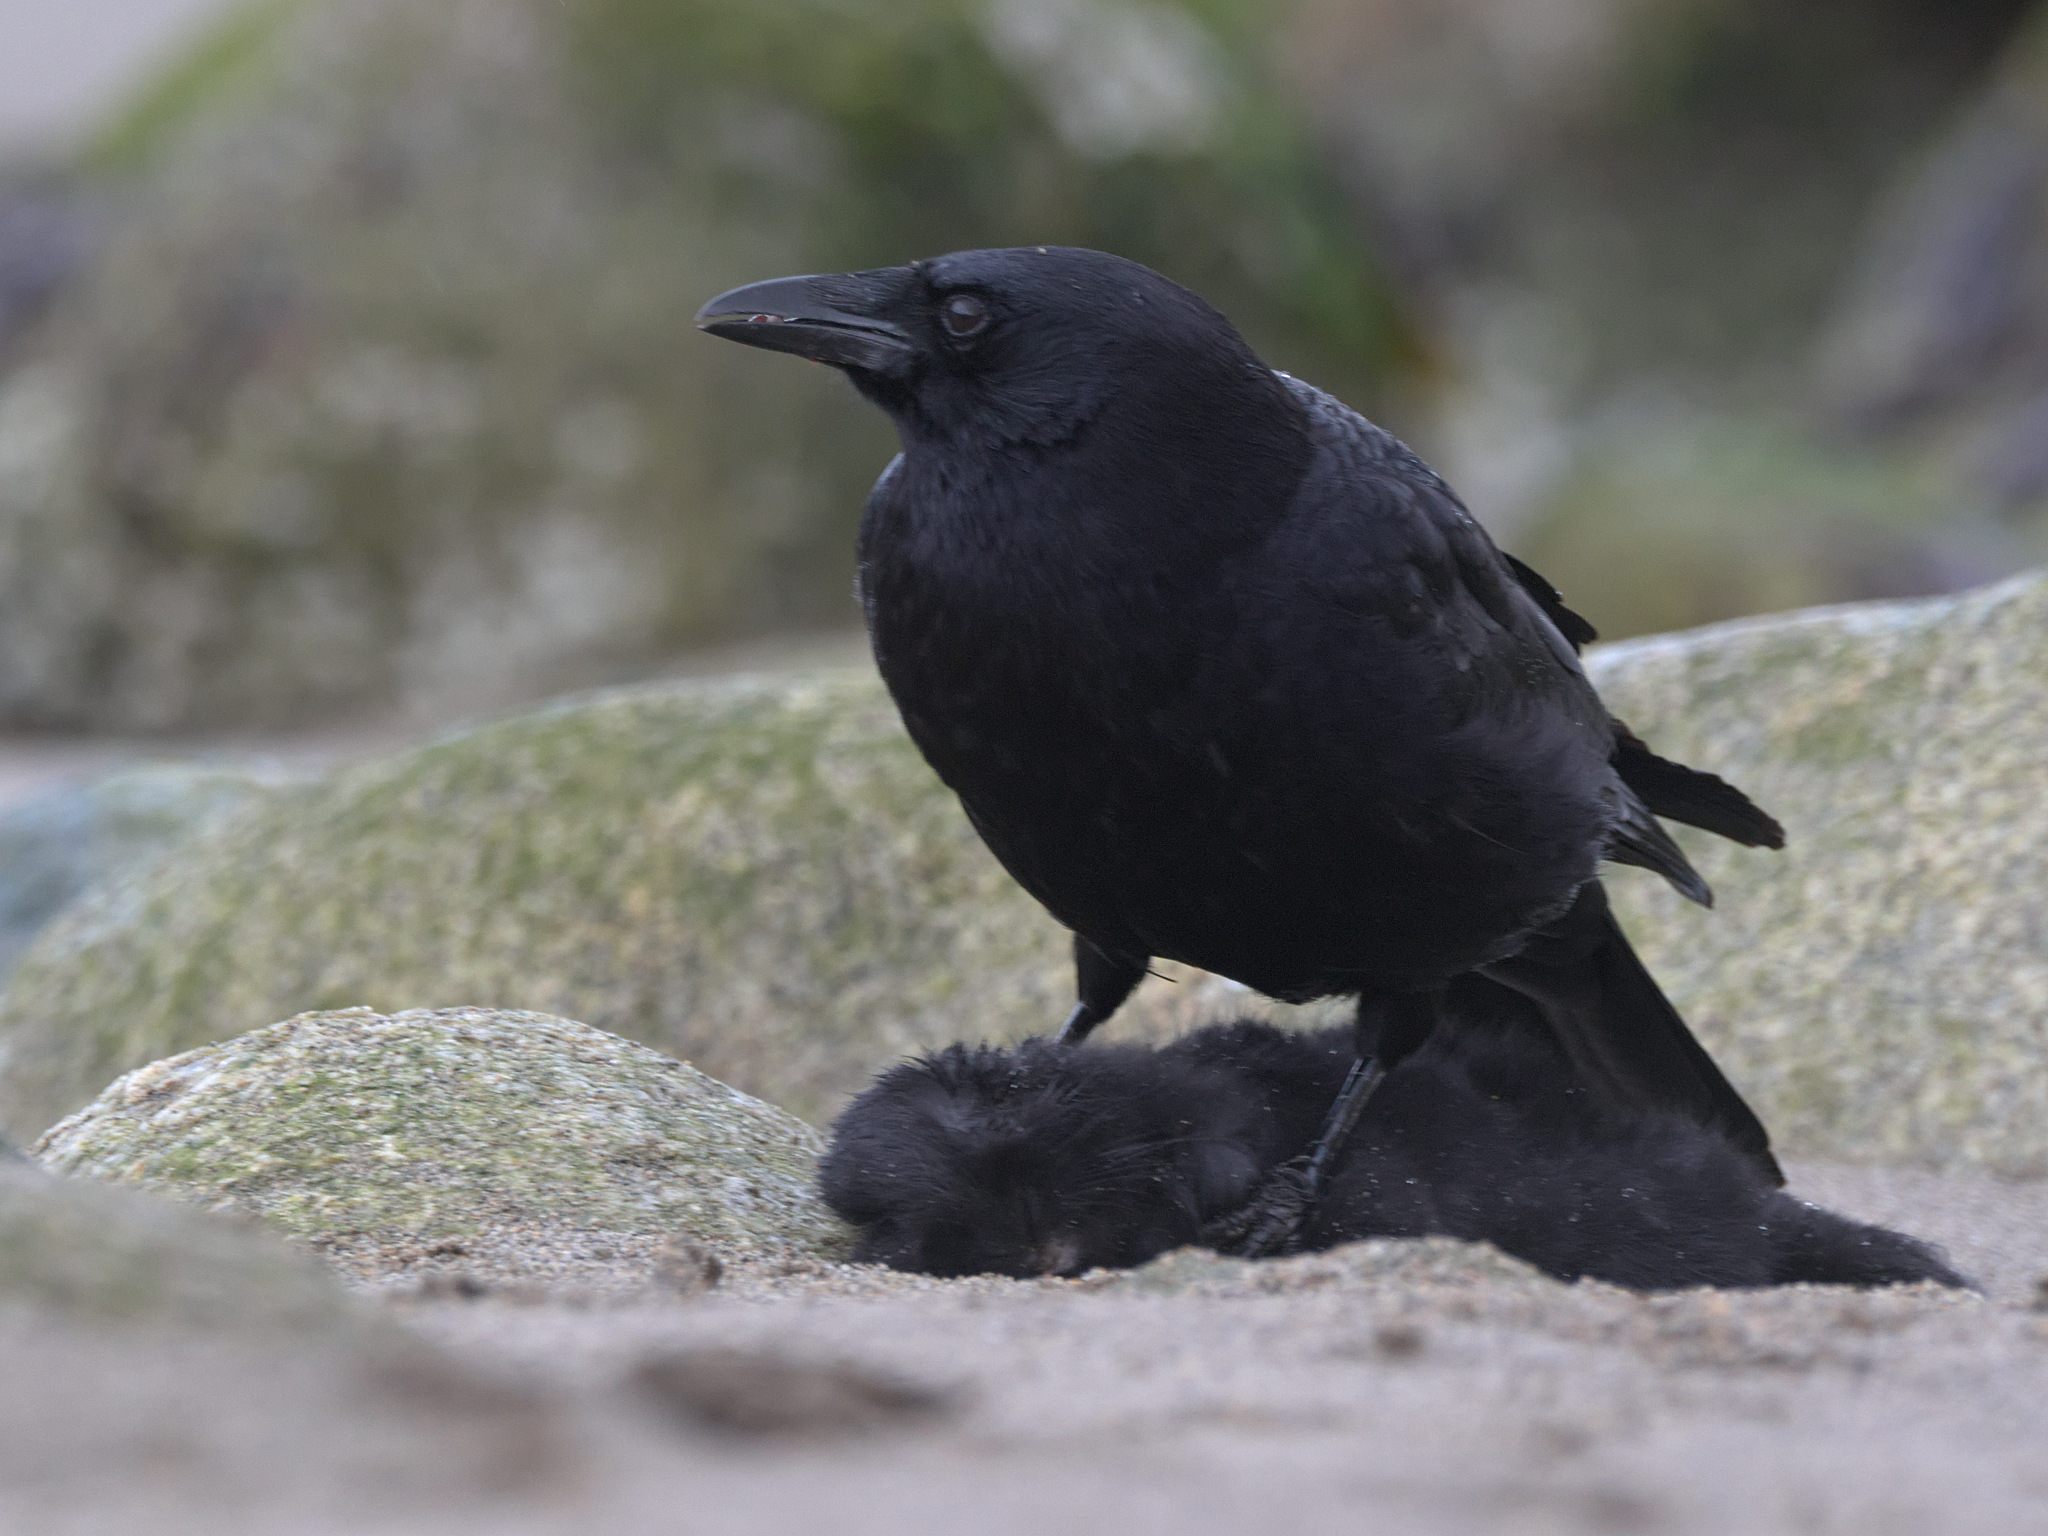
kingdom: Animalia
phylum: Chordata
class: Aves
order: Passeriformes
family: Corvidae
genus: Corvus
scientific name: Corvus brachyrhynchos
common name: American crow
